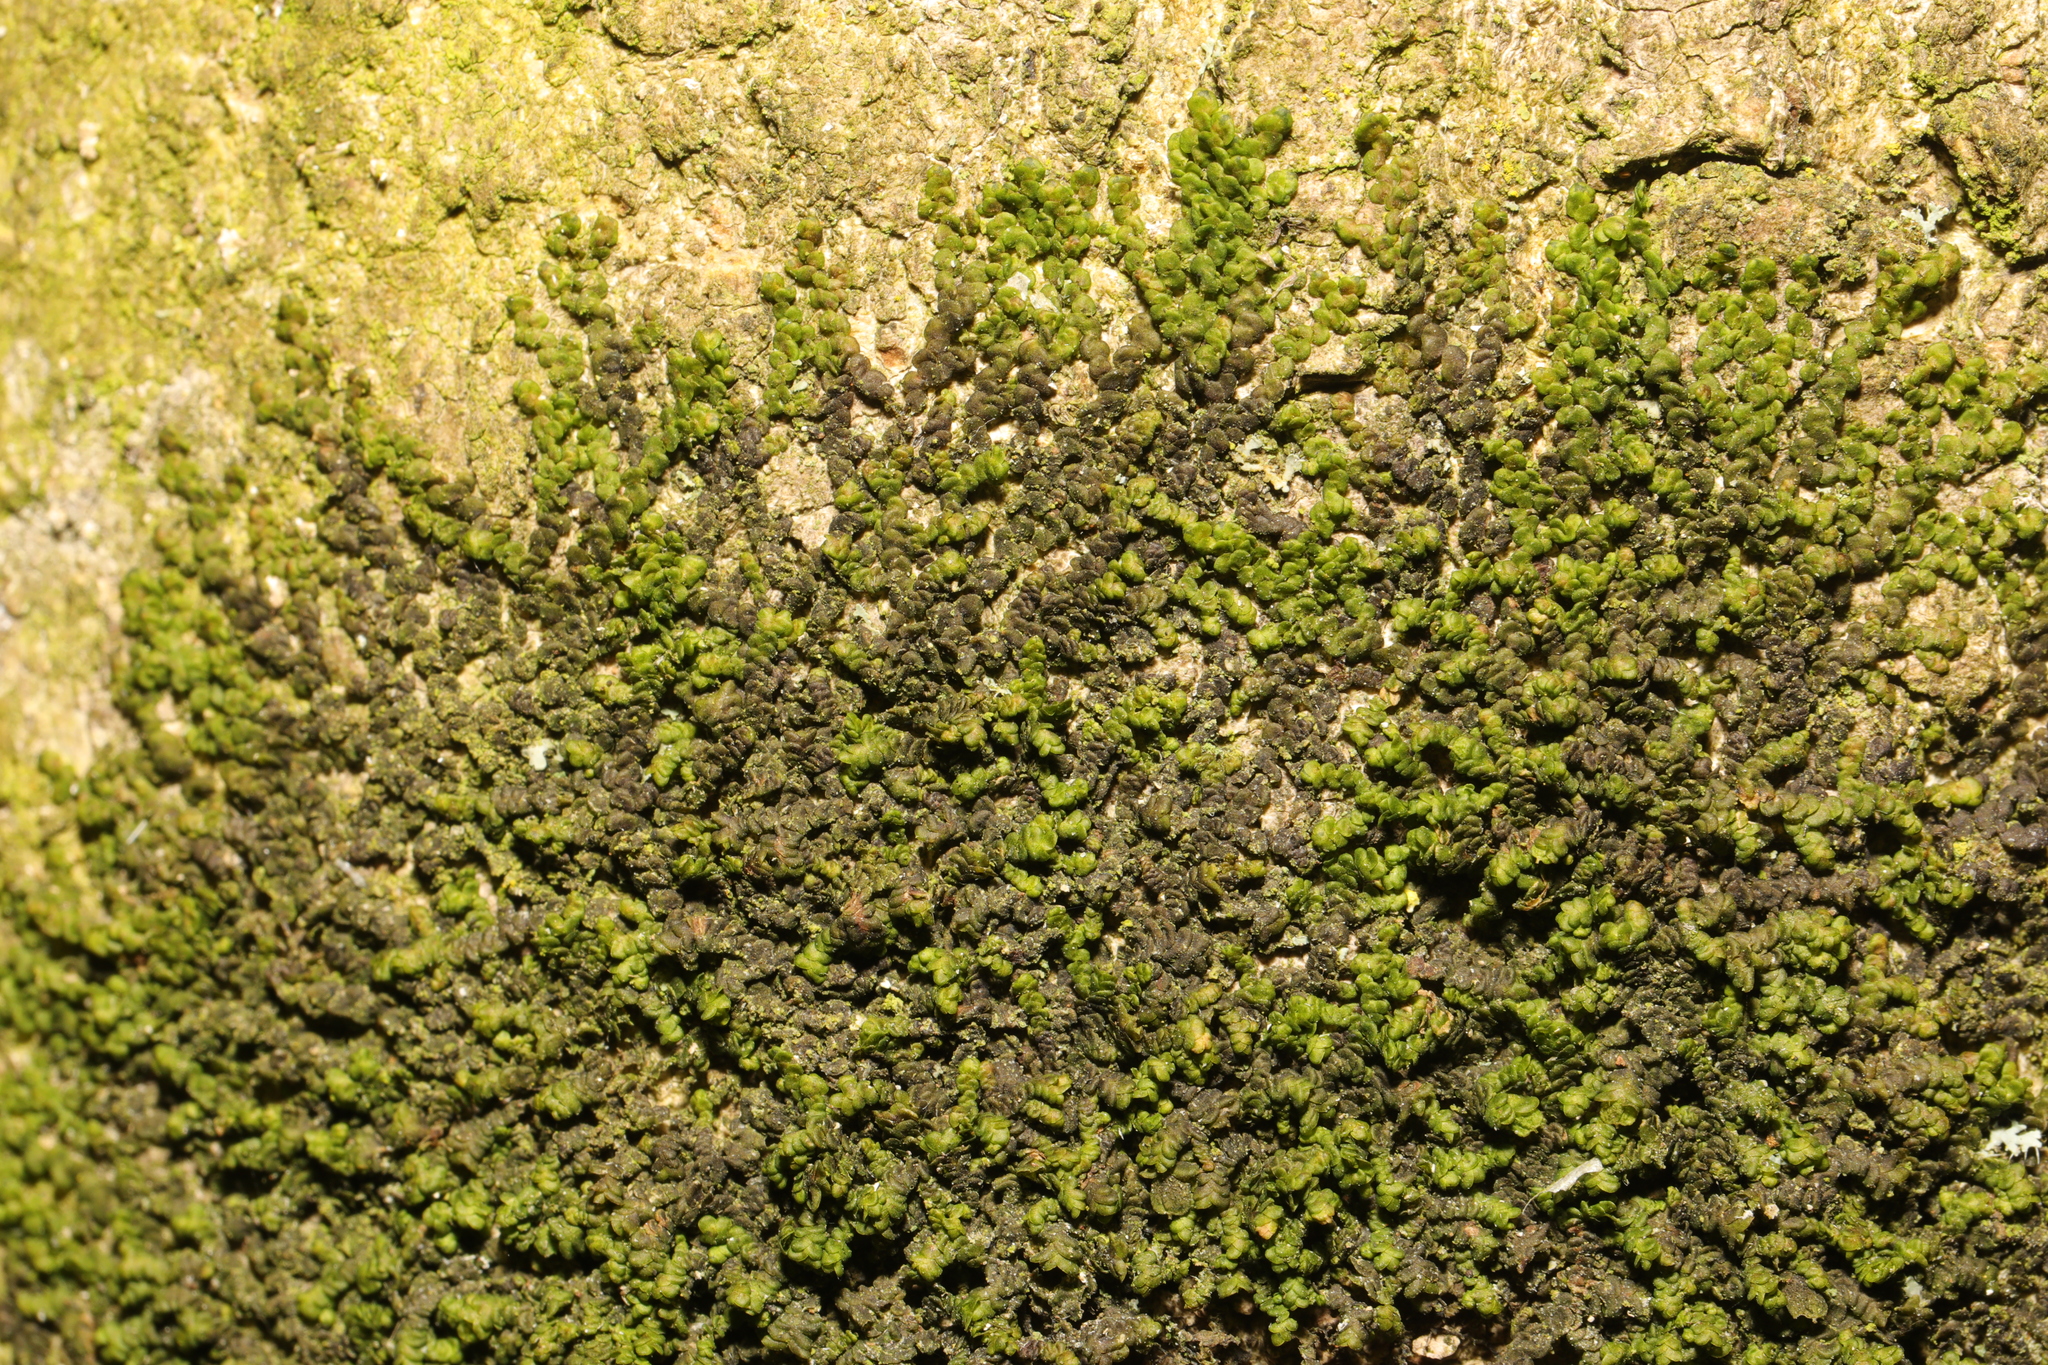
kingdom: Plantae
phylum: Marchantiophyta
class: Jungermanniopsida
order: Porellales
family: Frullaniaceae
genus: Frullania
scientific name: Frullania dilatata
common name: Dilated scalewort
